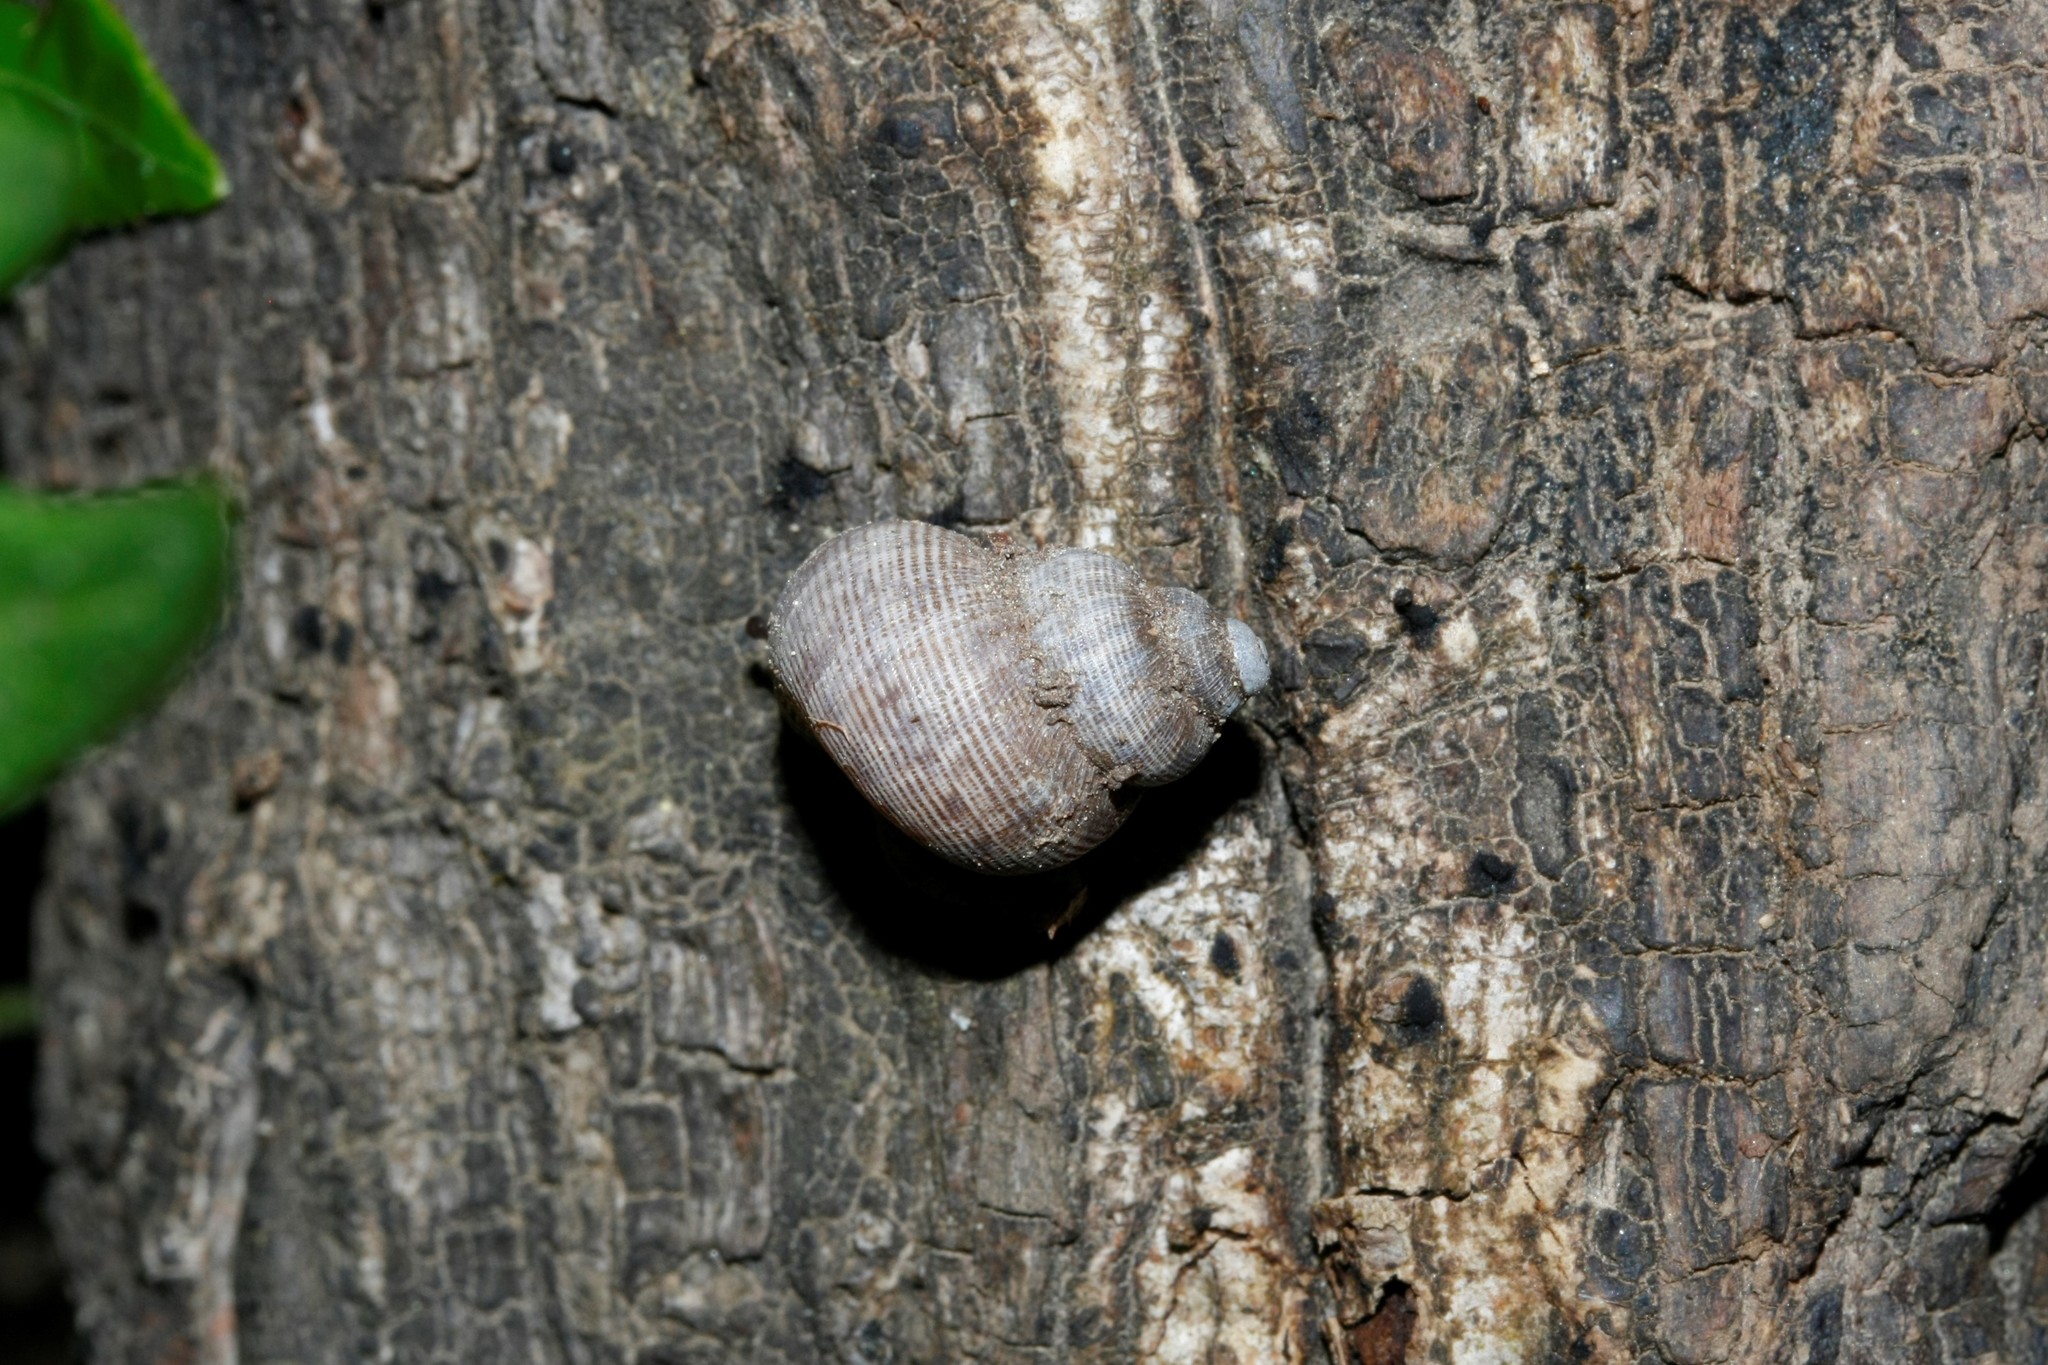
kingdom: Animalia
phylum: Mollusca
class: Gastropoda
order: Littorinimorpha
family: Pomatiidae
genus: Pomatias
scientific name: Pomatias elegans
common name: Red-mouthed snail
